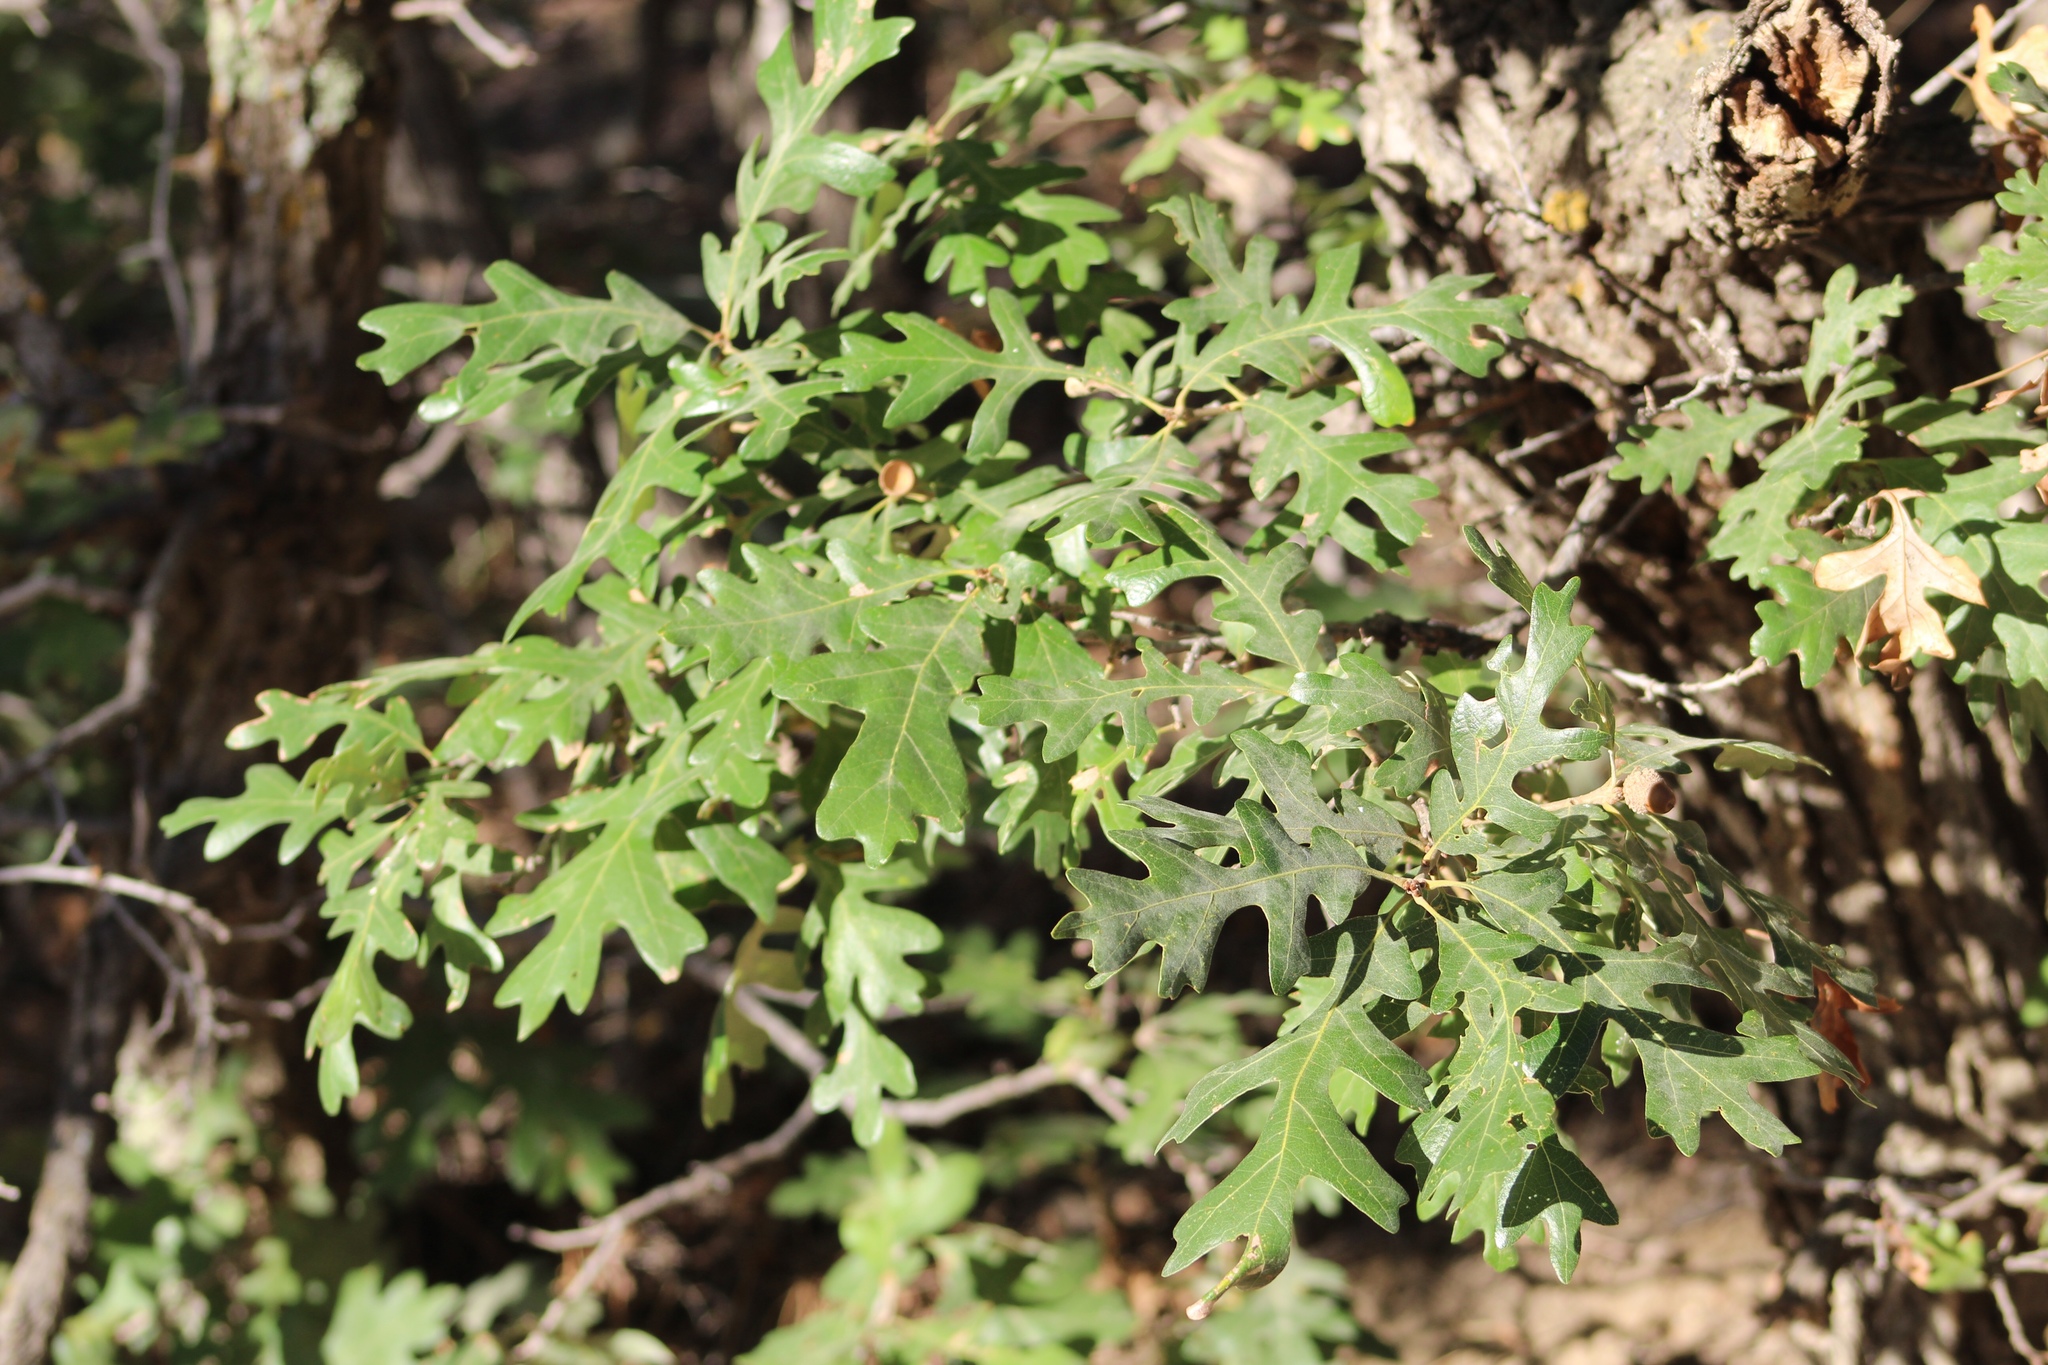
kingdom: Plantae
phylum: Tracheophyta
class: Magnoliopsida
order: Fagales
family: Fagaceae
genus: Quercus
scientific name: Quercus gambelii
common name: Gambel oak
